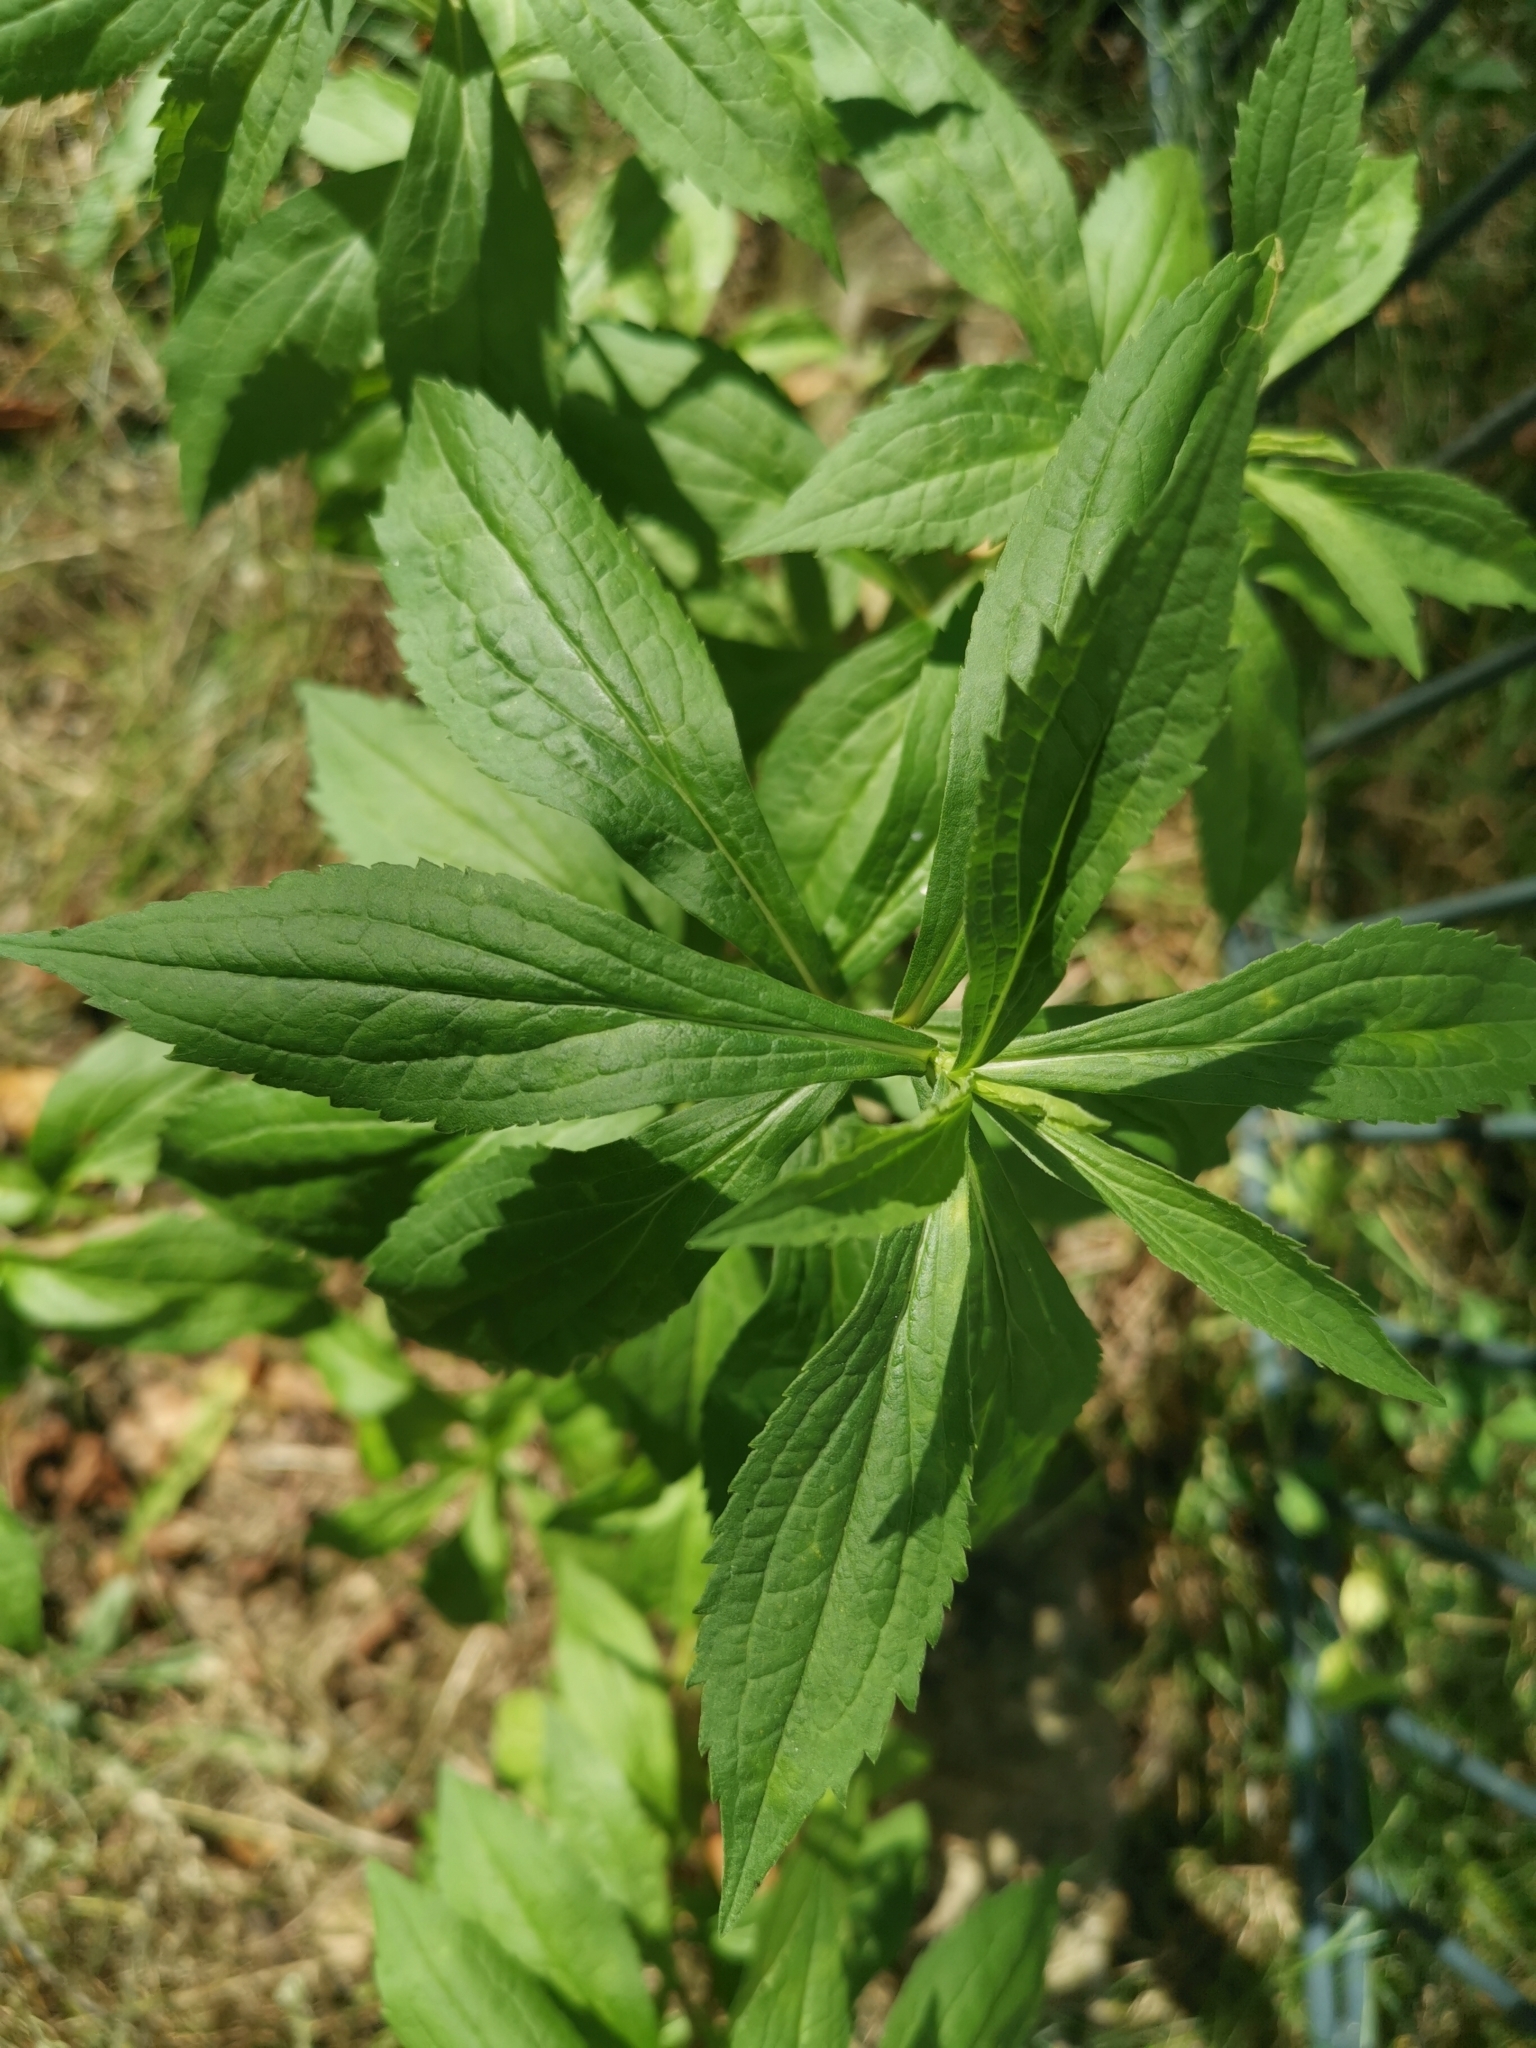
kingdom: Plantae
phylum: Tracheophyta
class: Magnoliopsida
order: Asterales
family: Asteraceae
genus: Solidago
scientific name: Solidago canadensis
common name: Canada goldenrod
